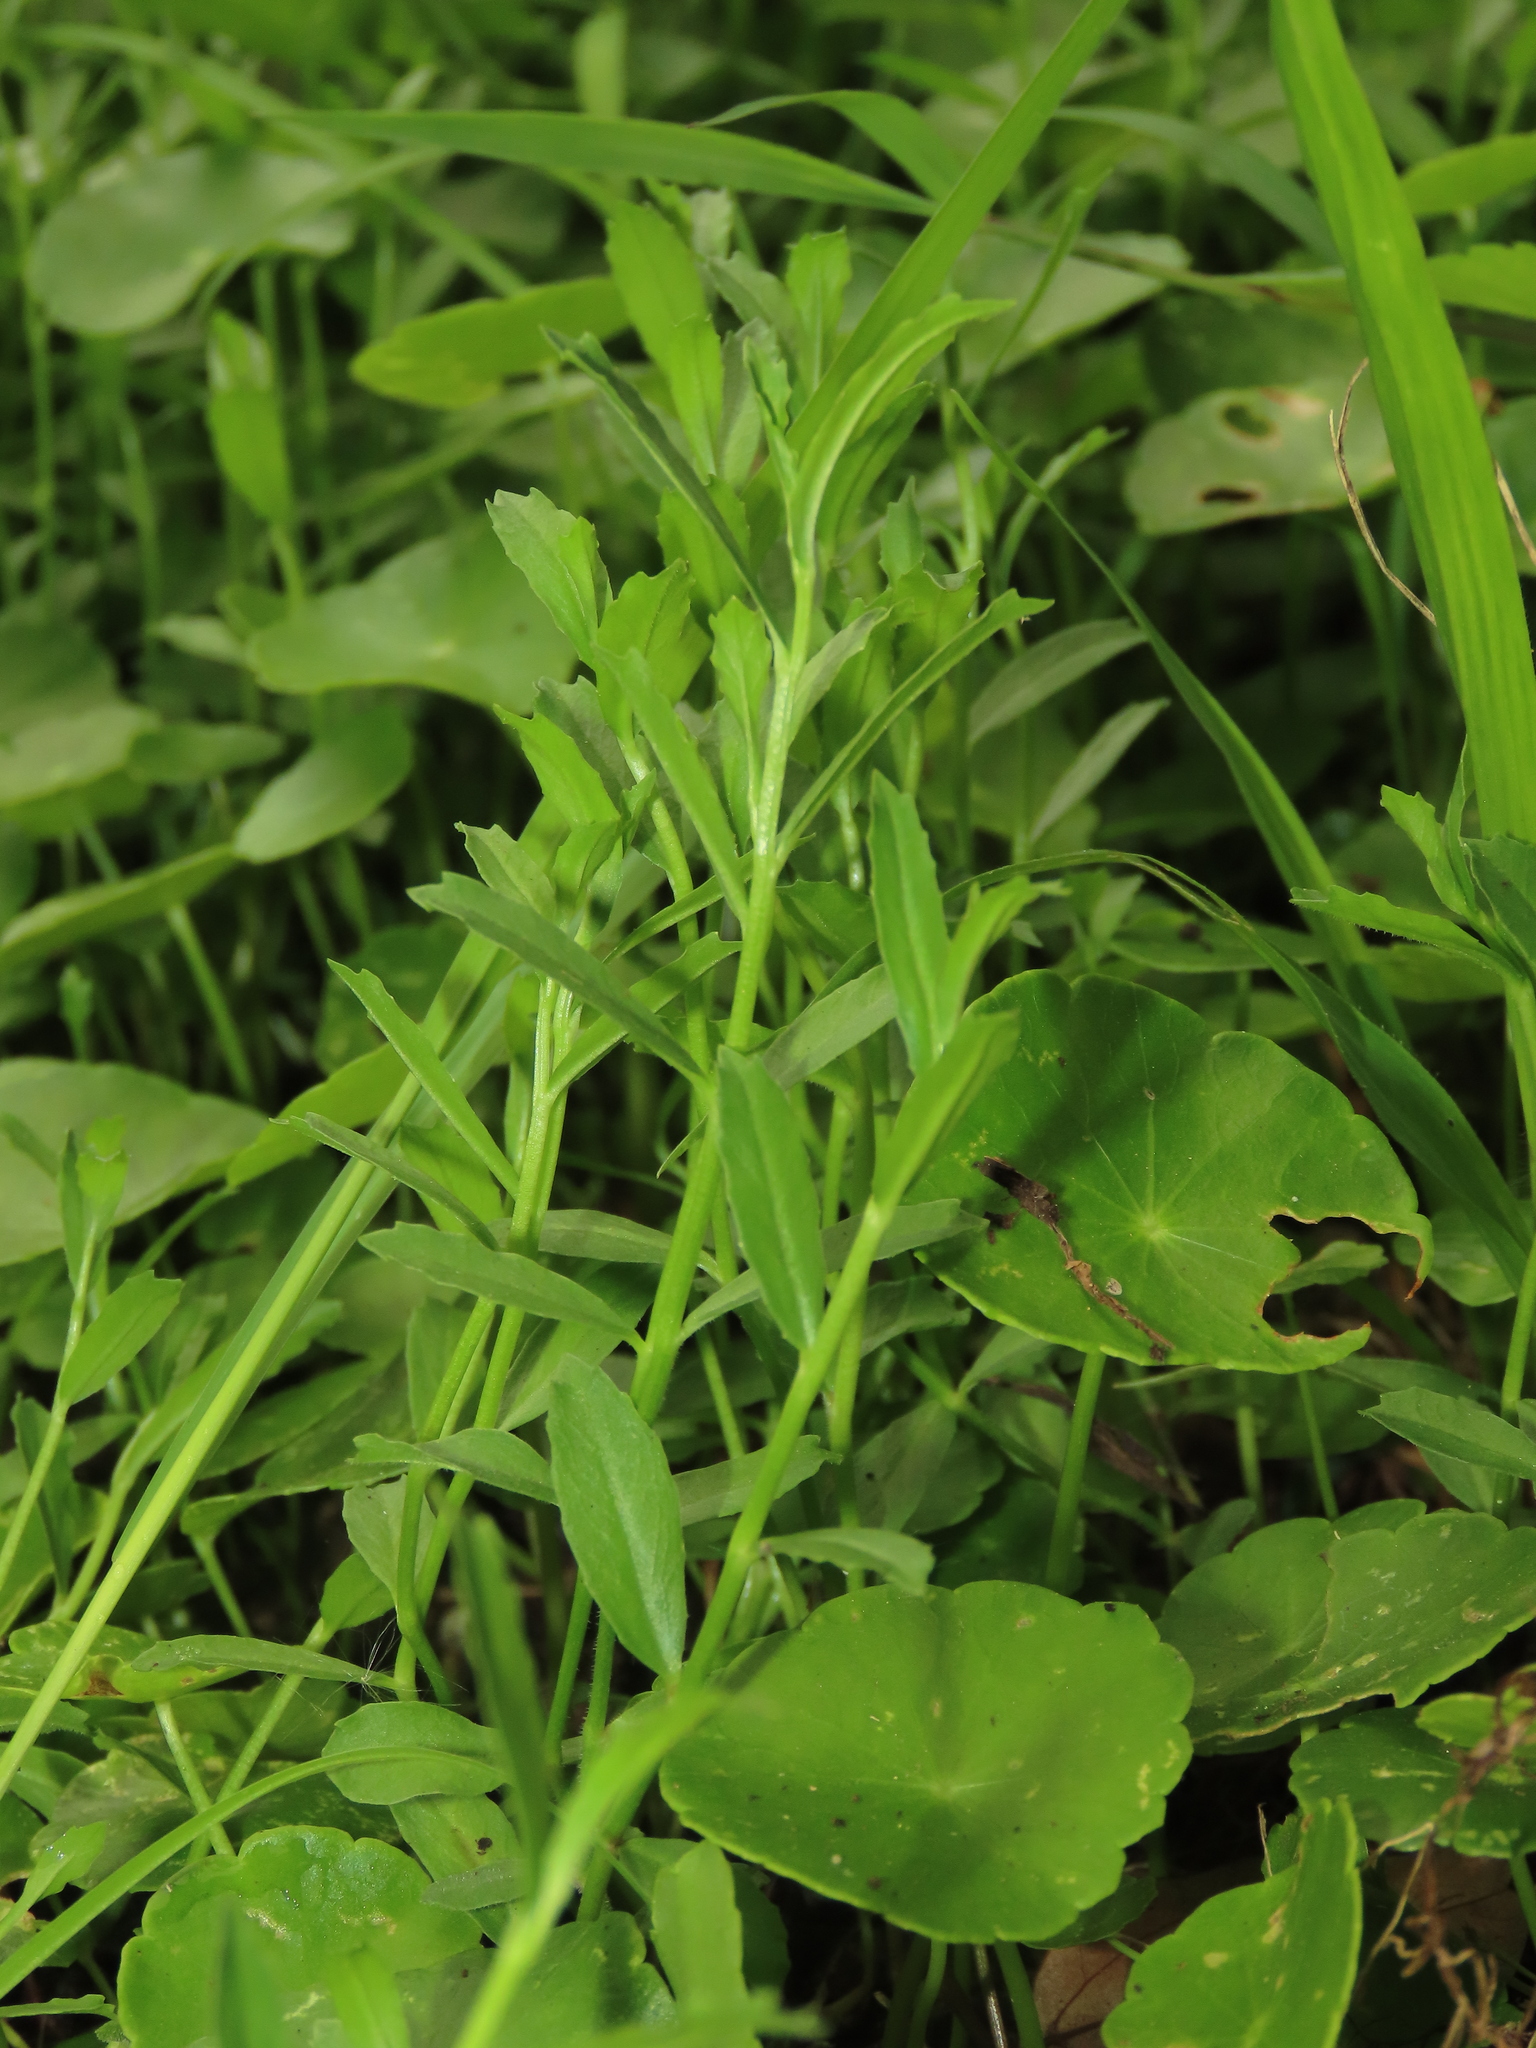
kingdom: Plantae
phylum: Tracheophyta
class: Magnoliopsida
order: Asterales
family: Campanulaceae
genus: Lobelia
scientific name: Lobelia chinensis
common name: Chinese lobelia
